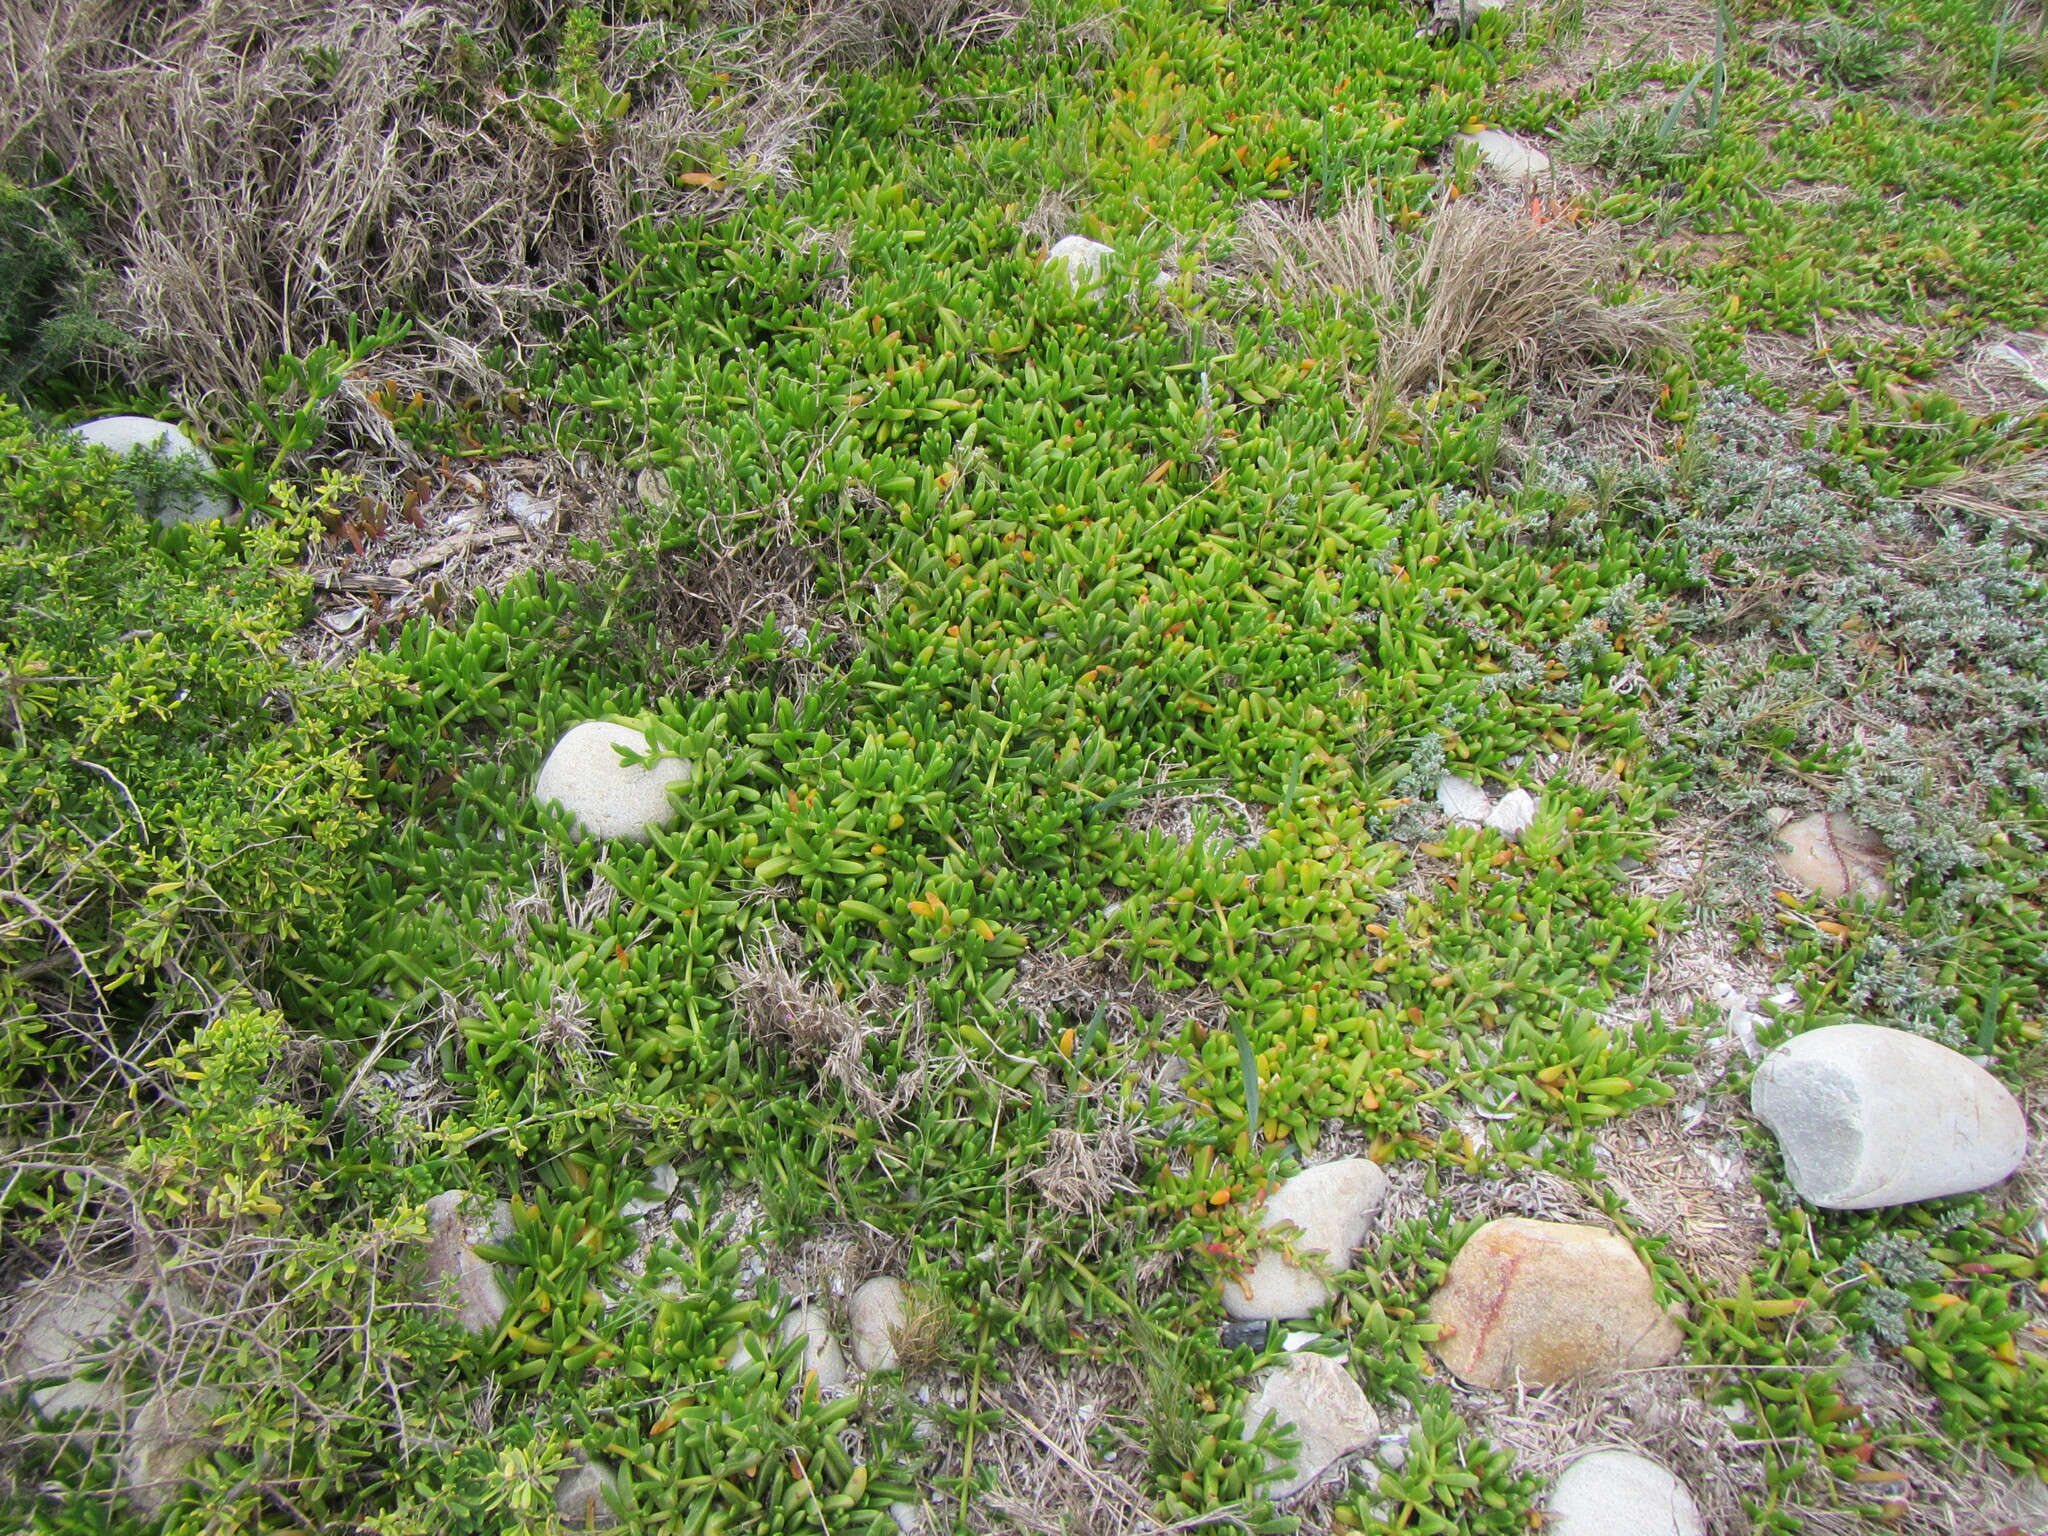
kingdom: Plantae
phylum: Tracheophyta
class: Magnoliopsida
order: Caryophyllales
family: Aizoaceae
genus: Disphyma
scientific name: Disphyma crassifolium
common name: Purple dewplant
